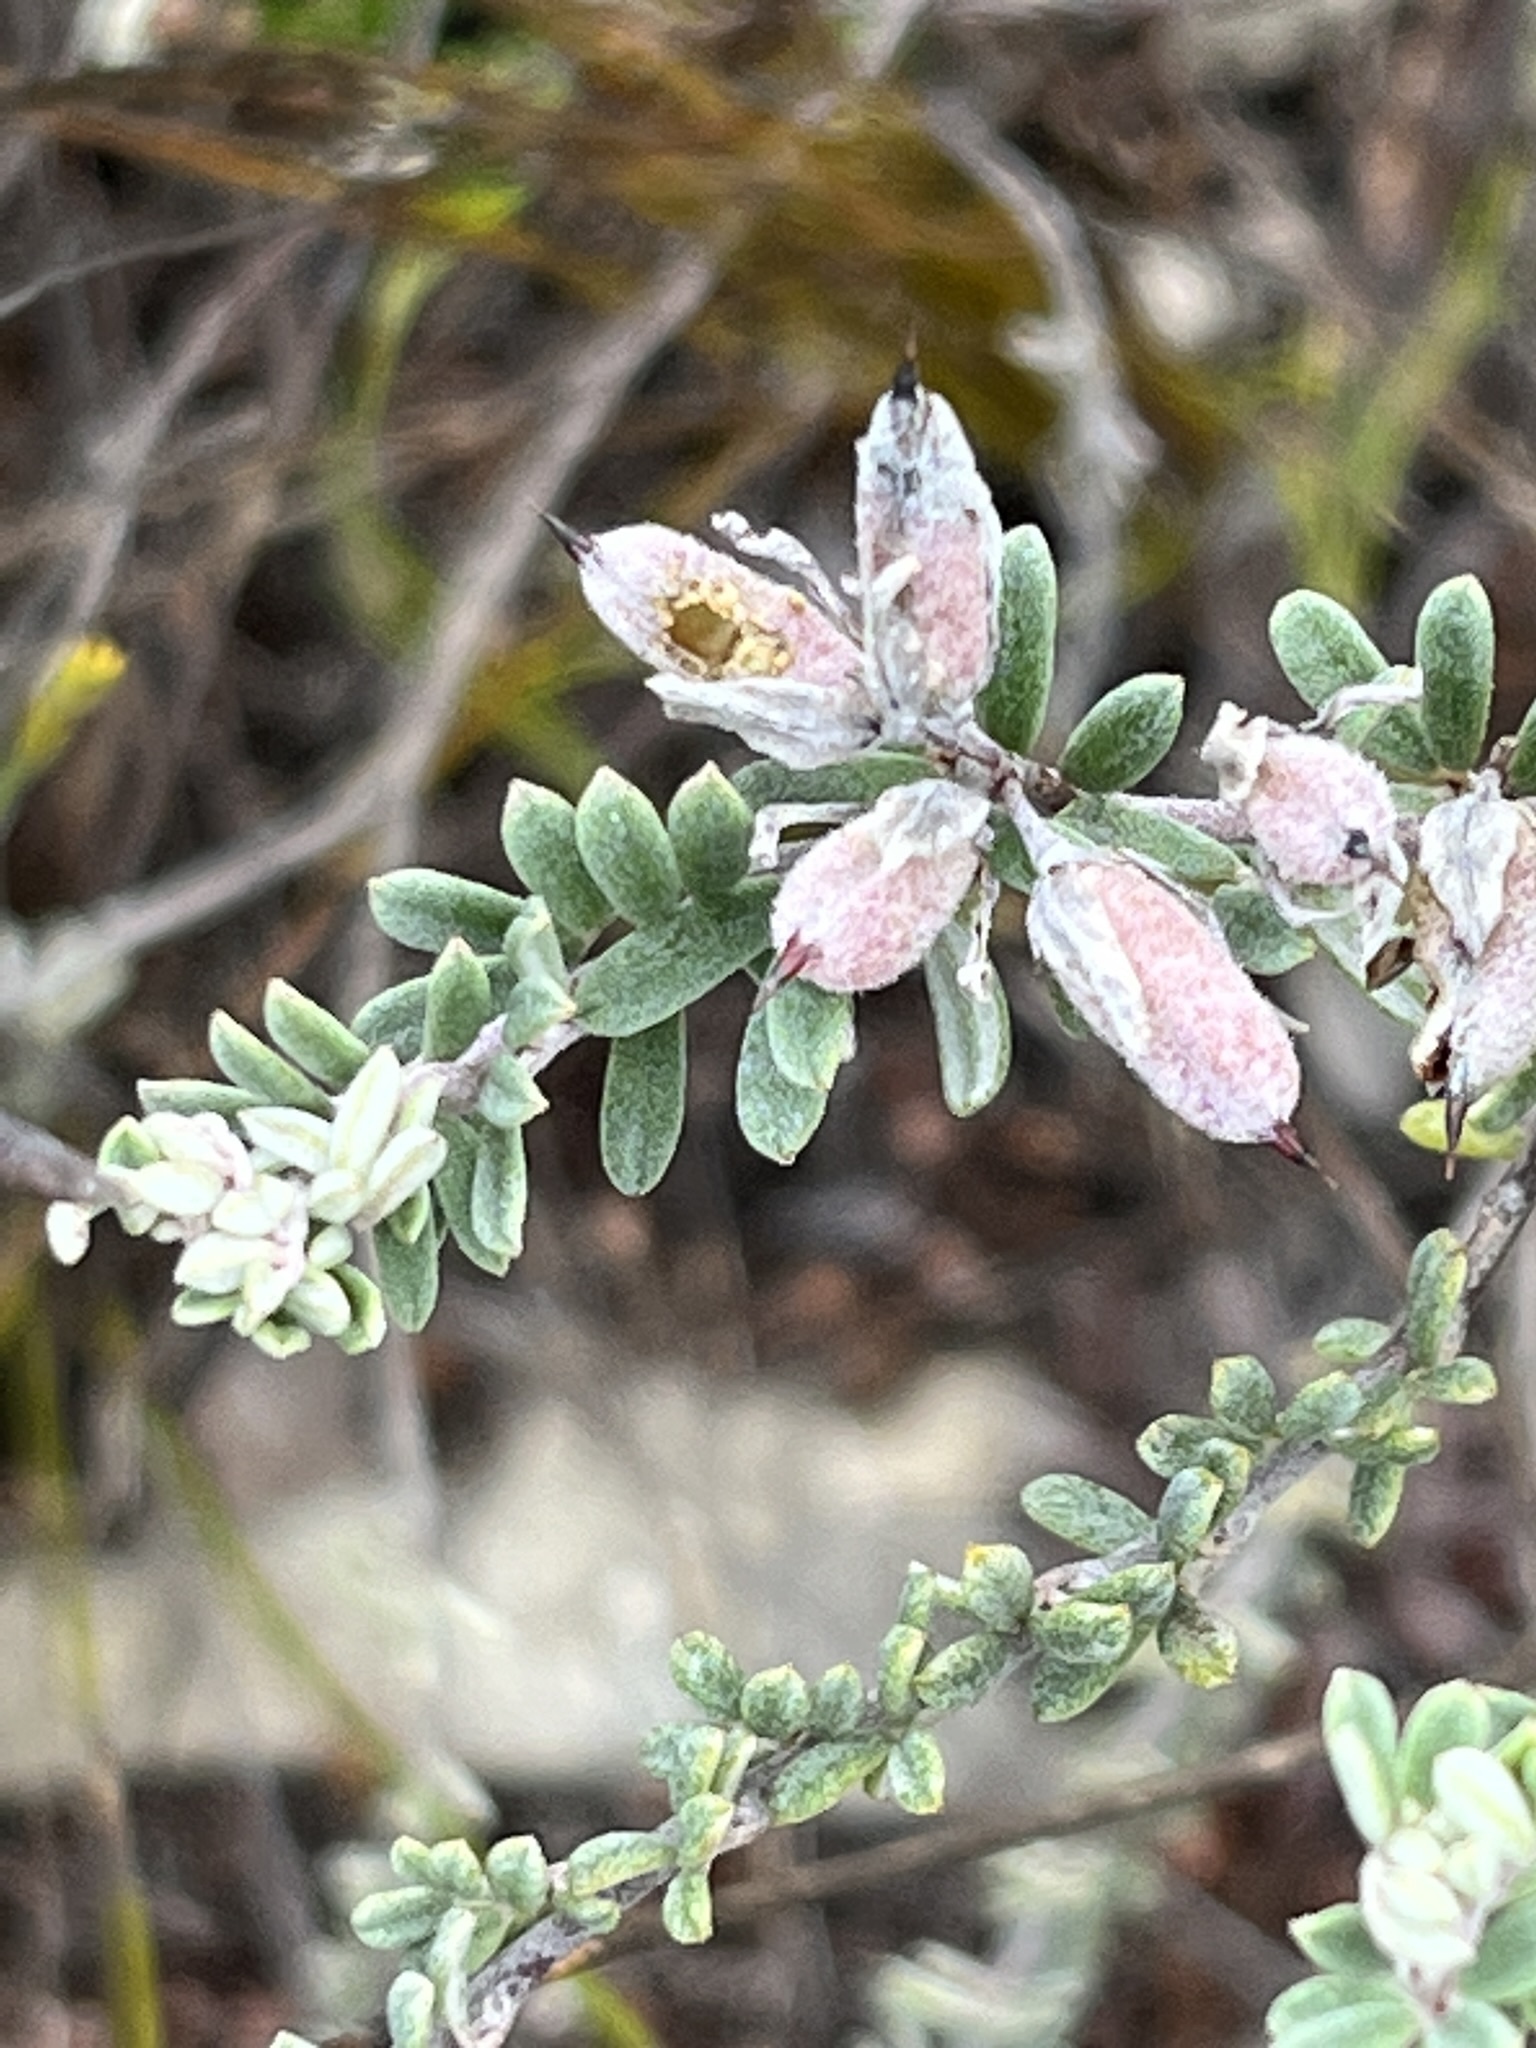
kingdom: Plantae
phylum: Tracheophyta
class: Magnoliopsida
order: Fabales
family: Fabaceae
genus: Indigofera
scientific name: Indigofera
